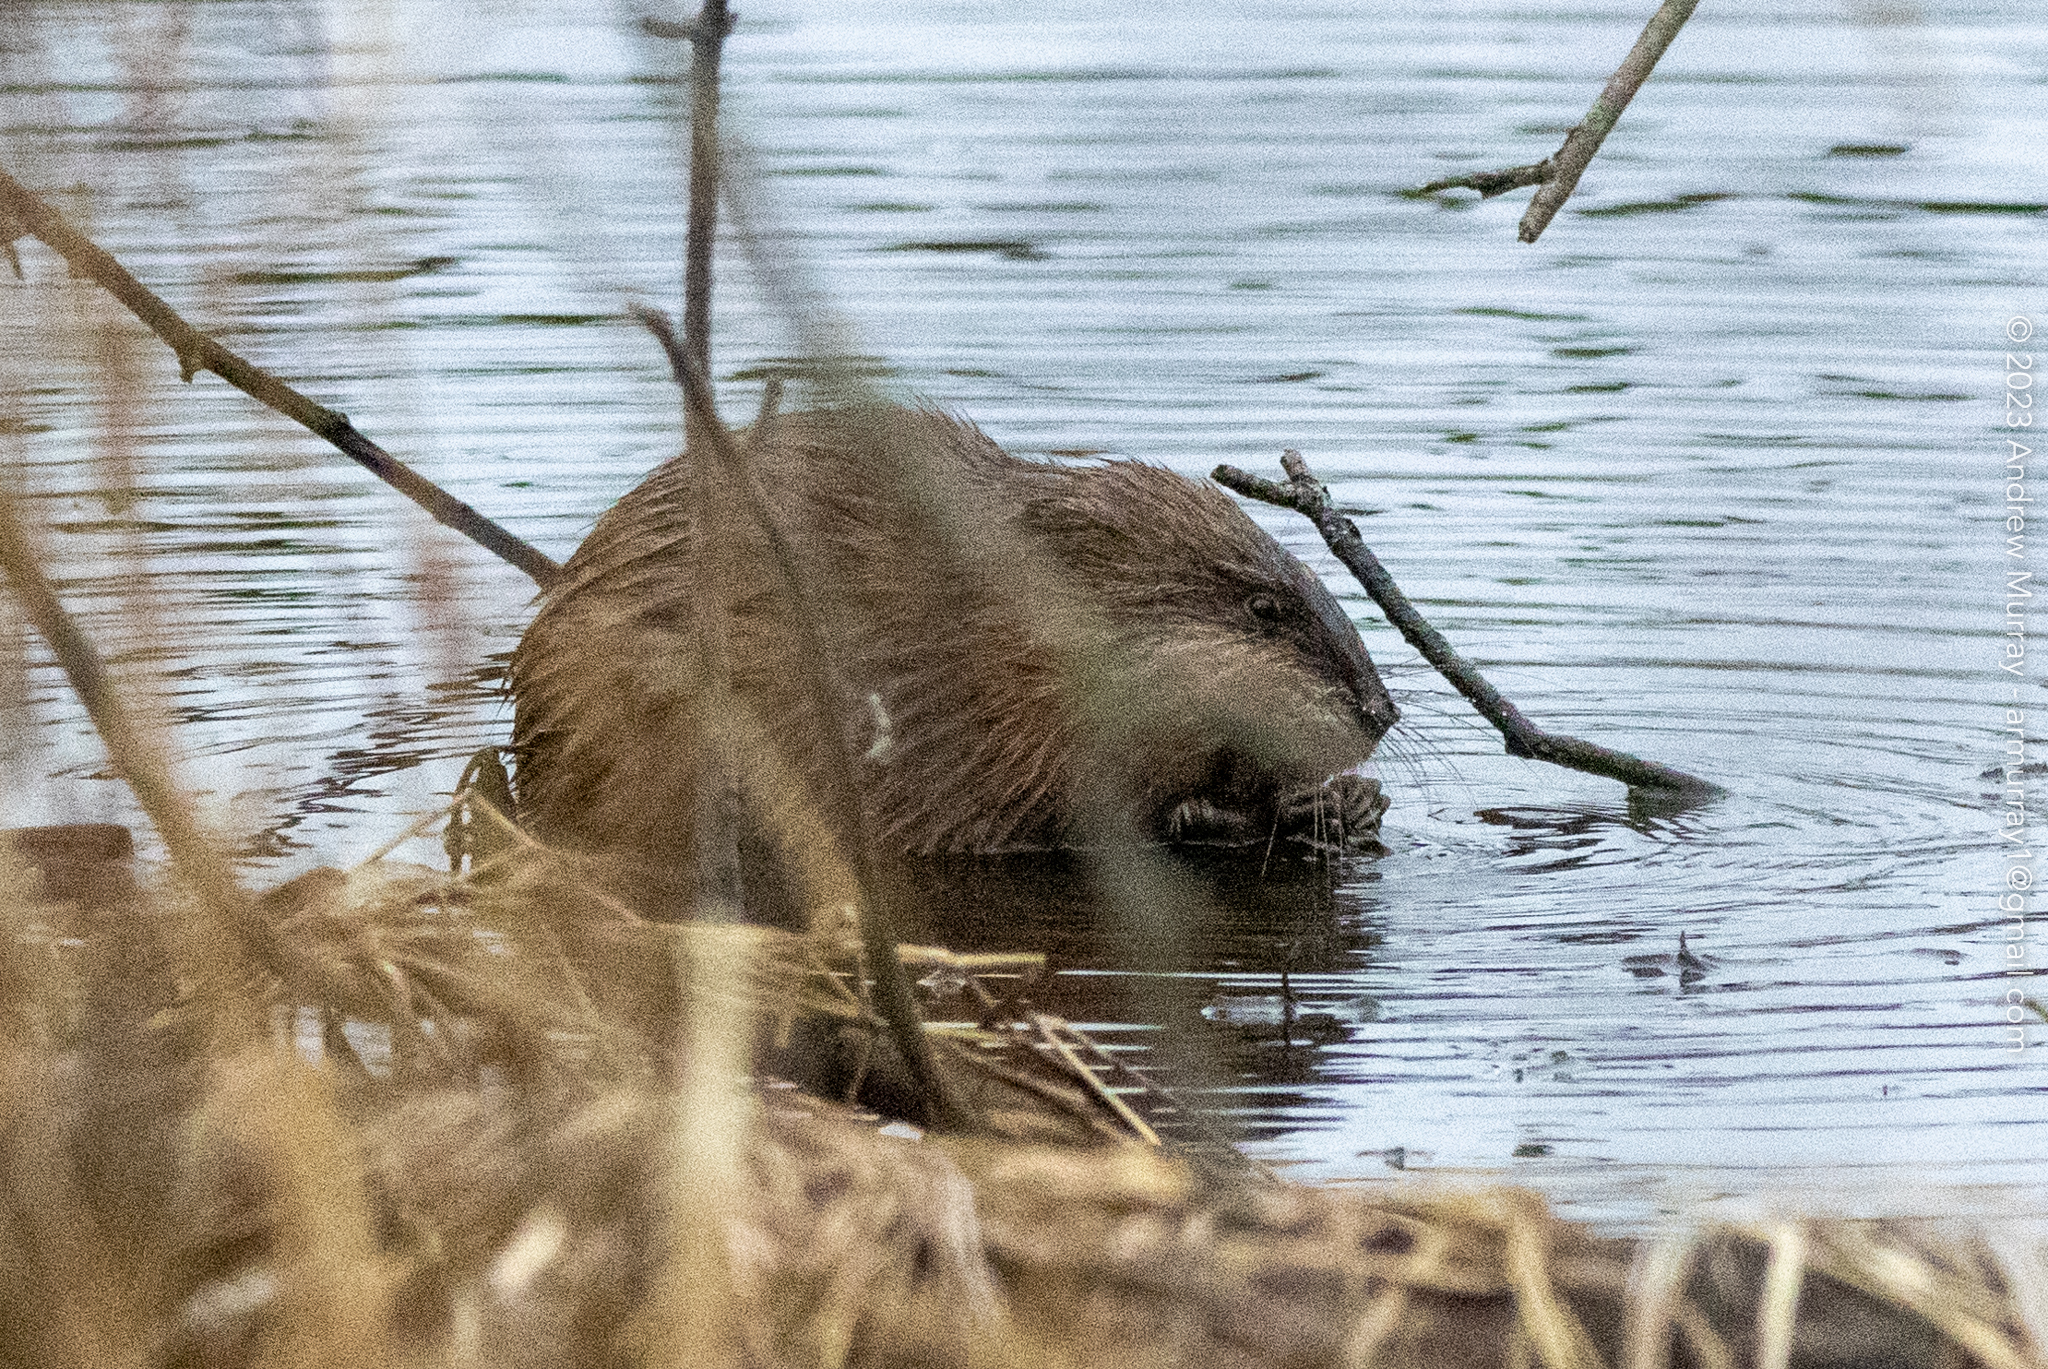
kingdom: Animalia
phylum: Chordata
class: Mammalia
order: Rodentia
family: Cricetidae
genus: Ondatra
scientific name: Ondatra zibethicus
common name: Muskrat
